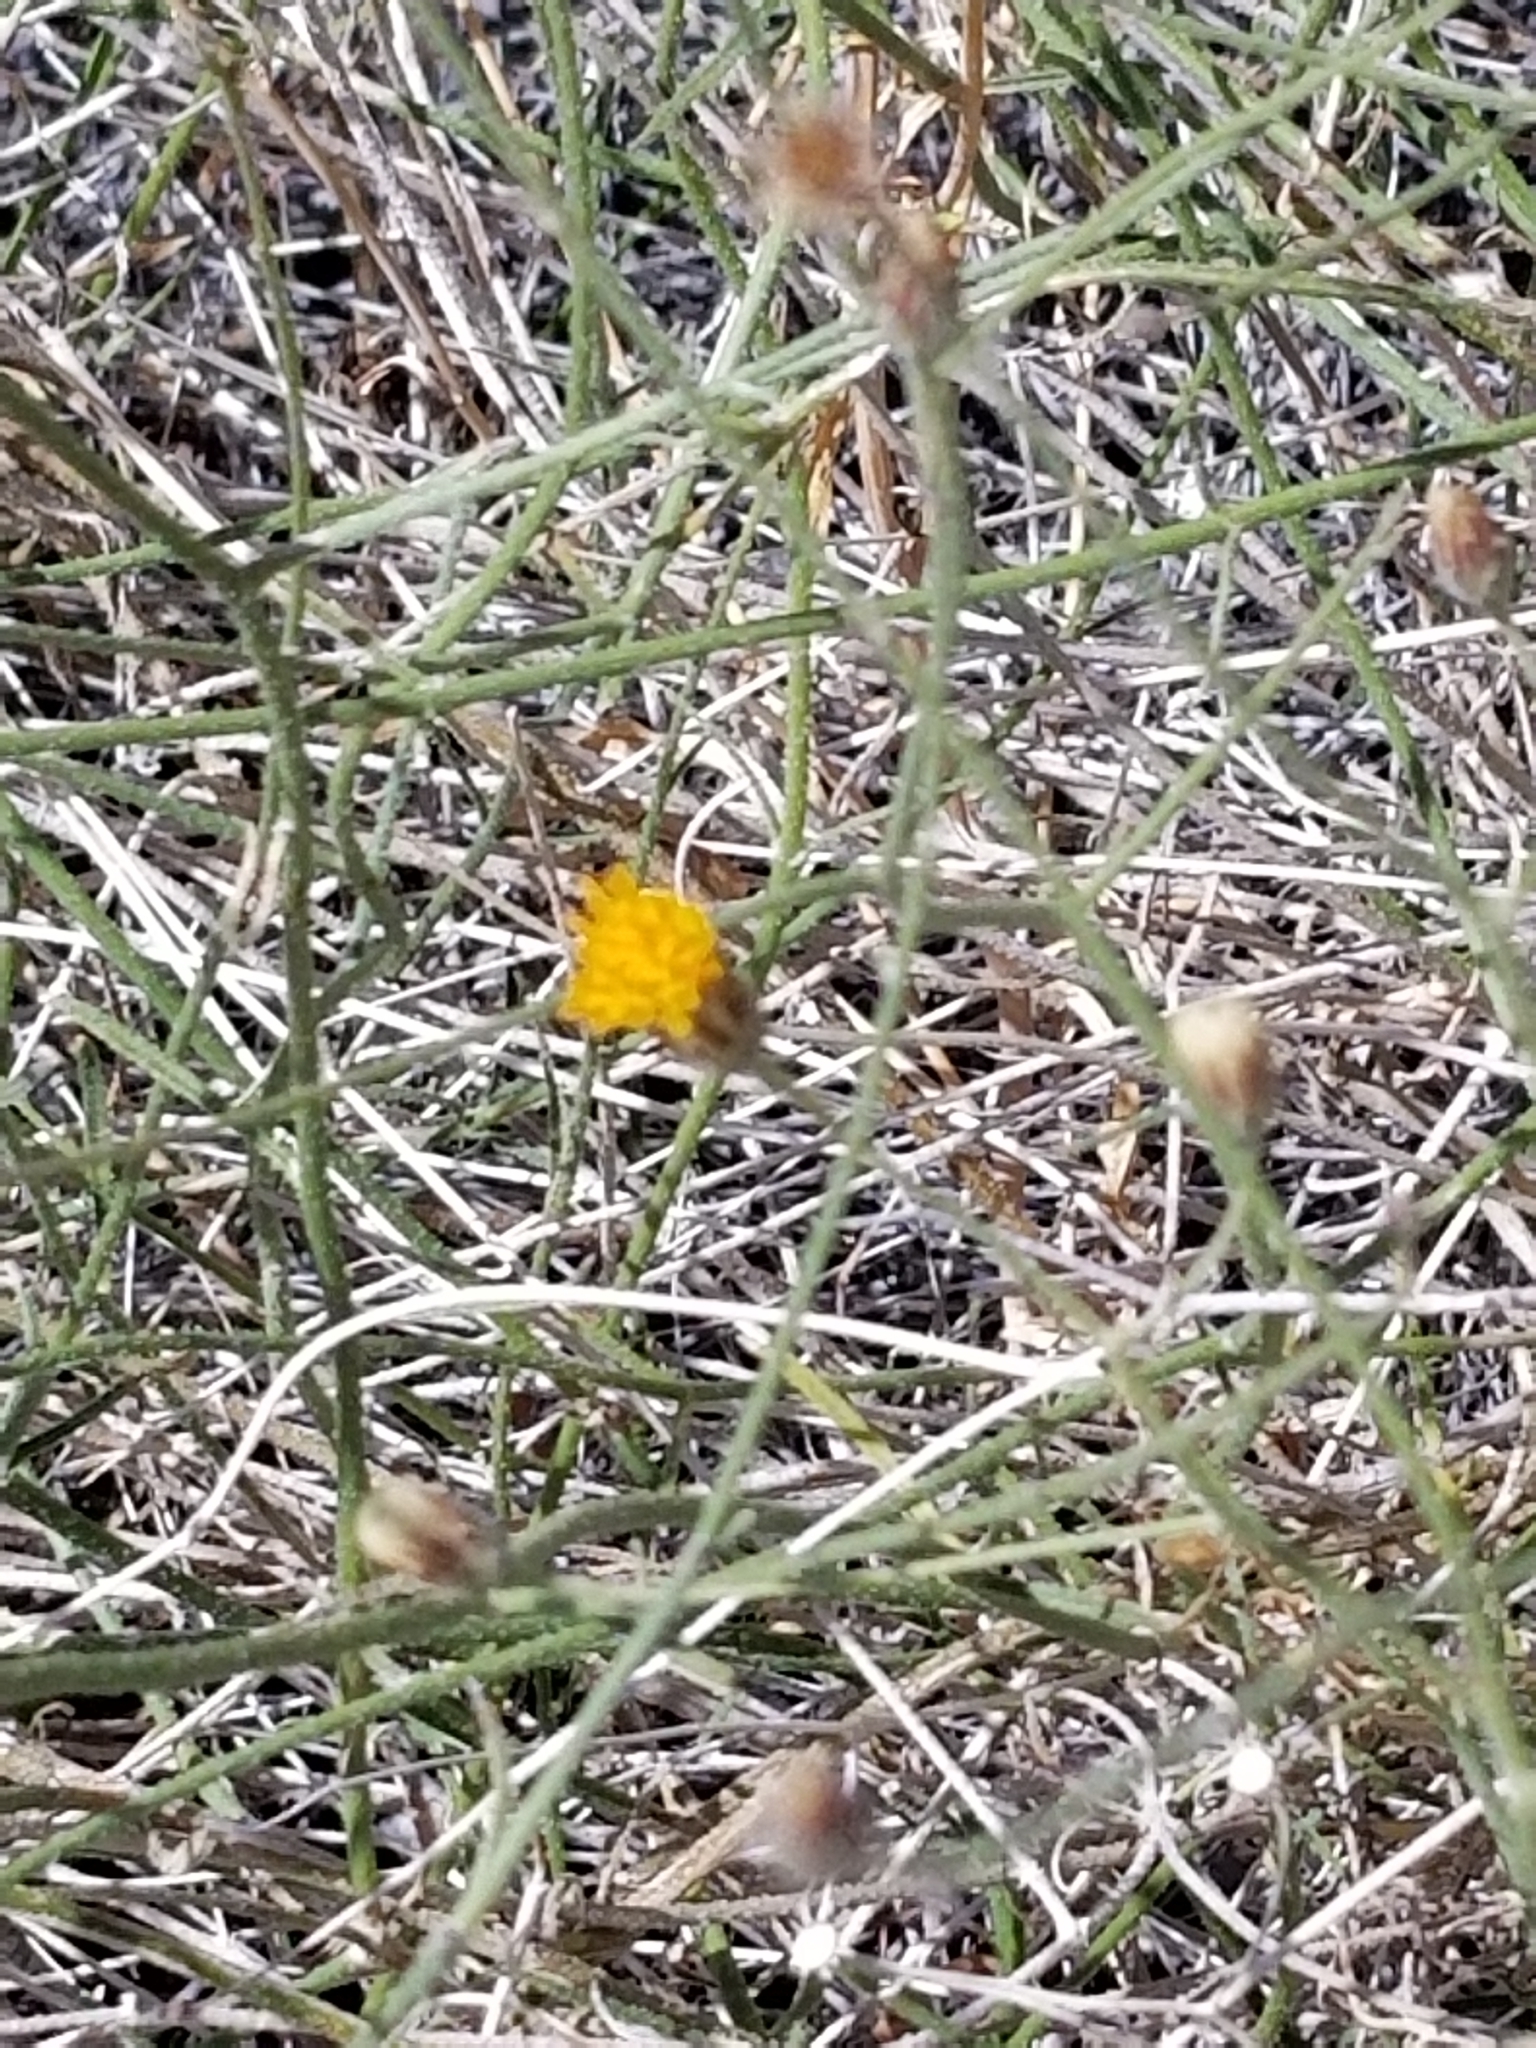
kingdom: Plantae
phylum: Tracheophyta
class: Magnoliopsida
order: Asterales
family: Asteraceae
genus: Bebbia
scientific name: Bebbia juncea
